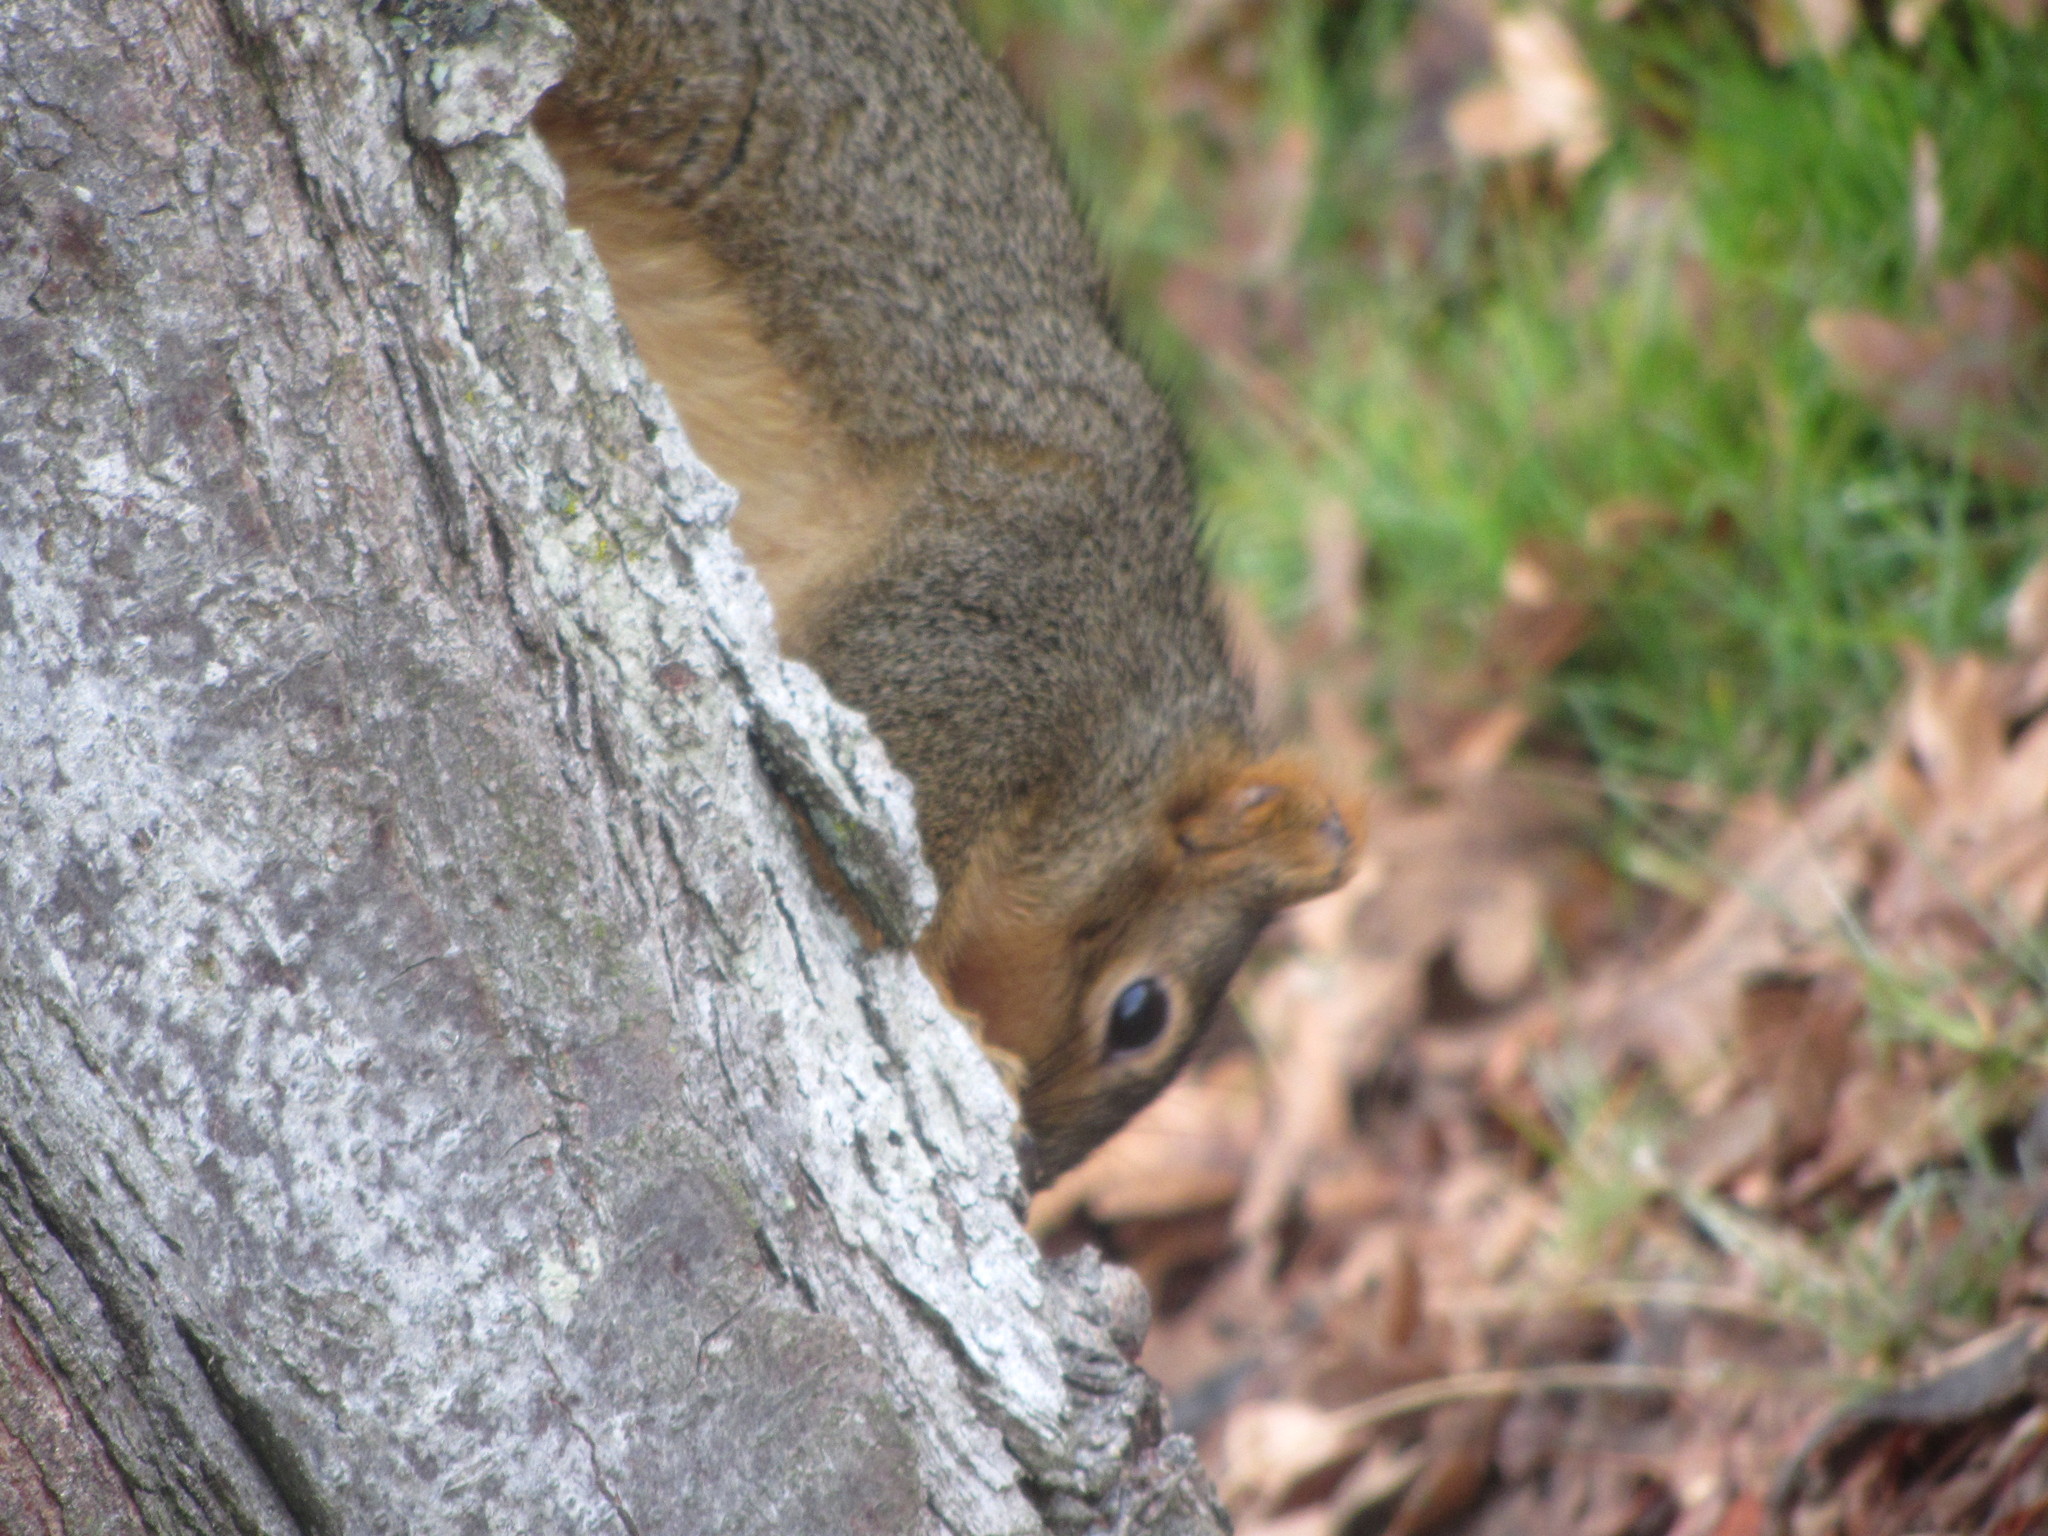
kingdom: Animalia
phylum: Chordata
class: Mammalia
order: Rodentia
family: Sciuridae
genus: Sciurus
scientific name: Sciurus niger
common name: Fox squirrel
